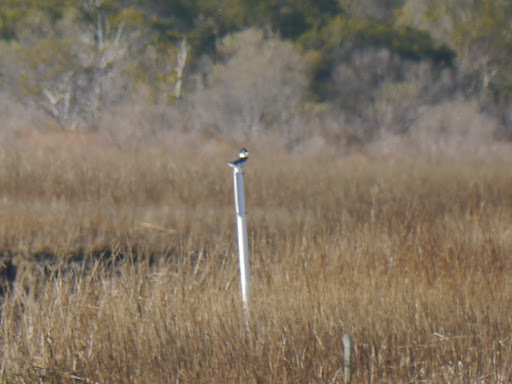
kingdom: Animalia
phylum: Chordata
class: Aves
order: Coraciiformes
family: Alcedinidae
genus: Megaceryle
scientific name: Megaceryle alcyon
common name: Belted kingfisher
